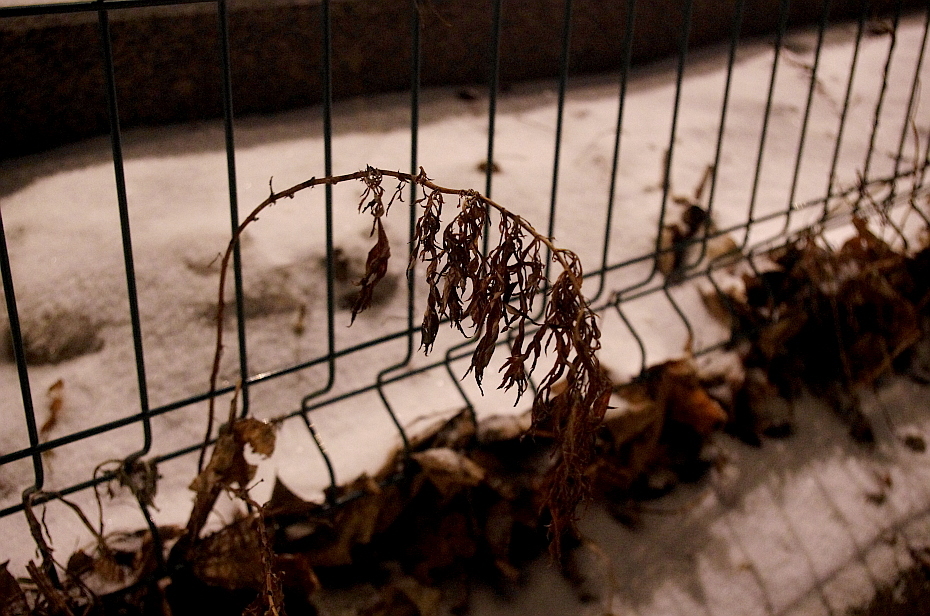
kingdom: Plantae
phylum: Tracheophyta
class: Magnoliopsida
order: Asterales
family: Asteraceae
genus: Artemisia
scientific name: Artemisia vulgaris
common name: Mugwort
